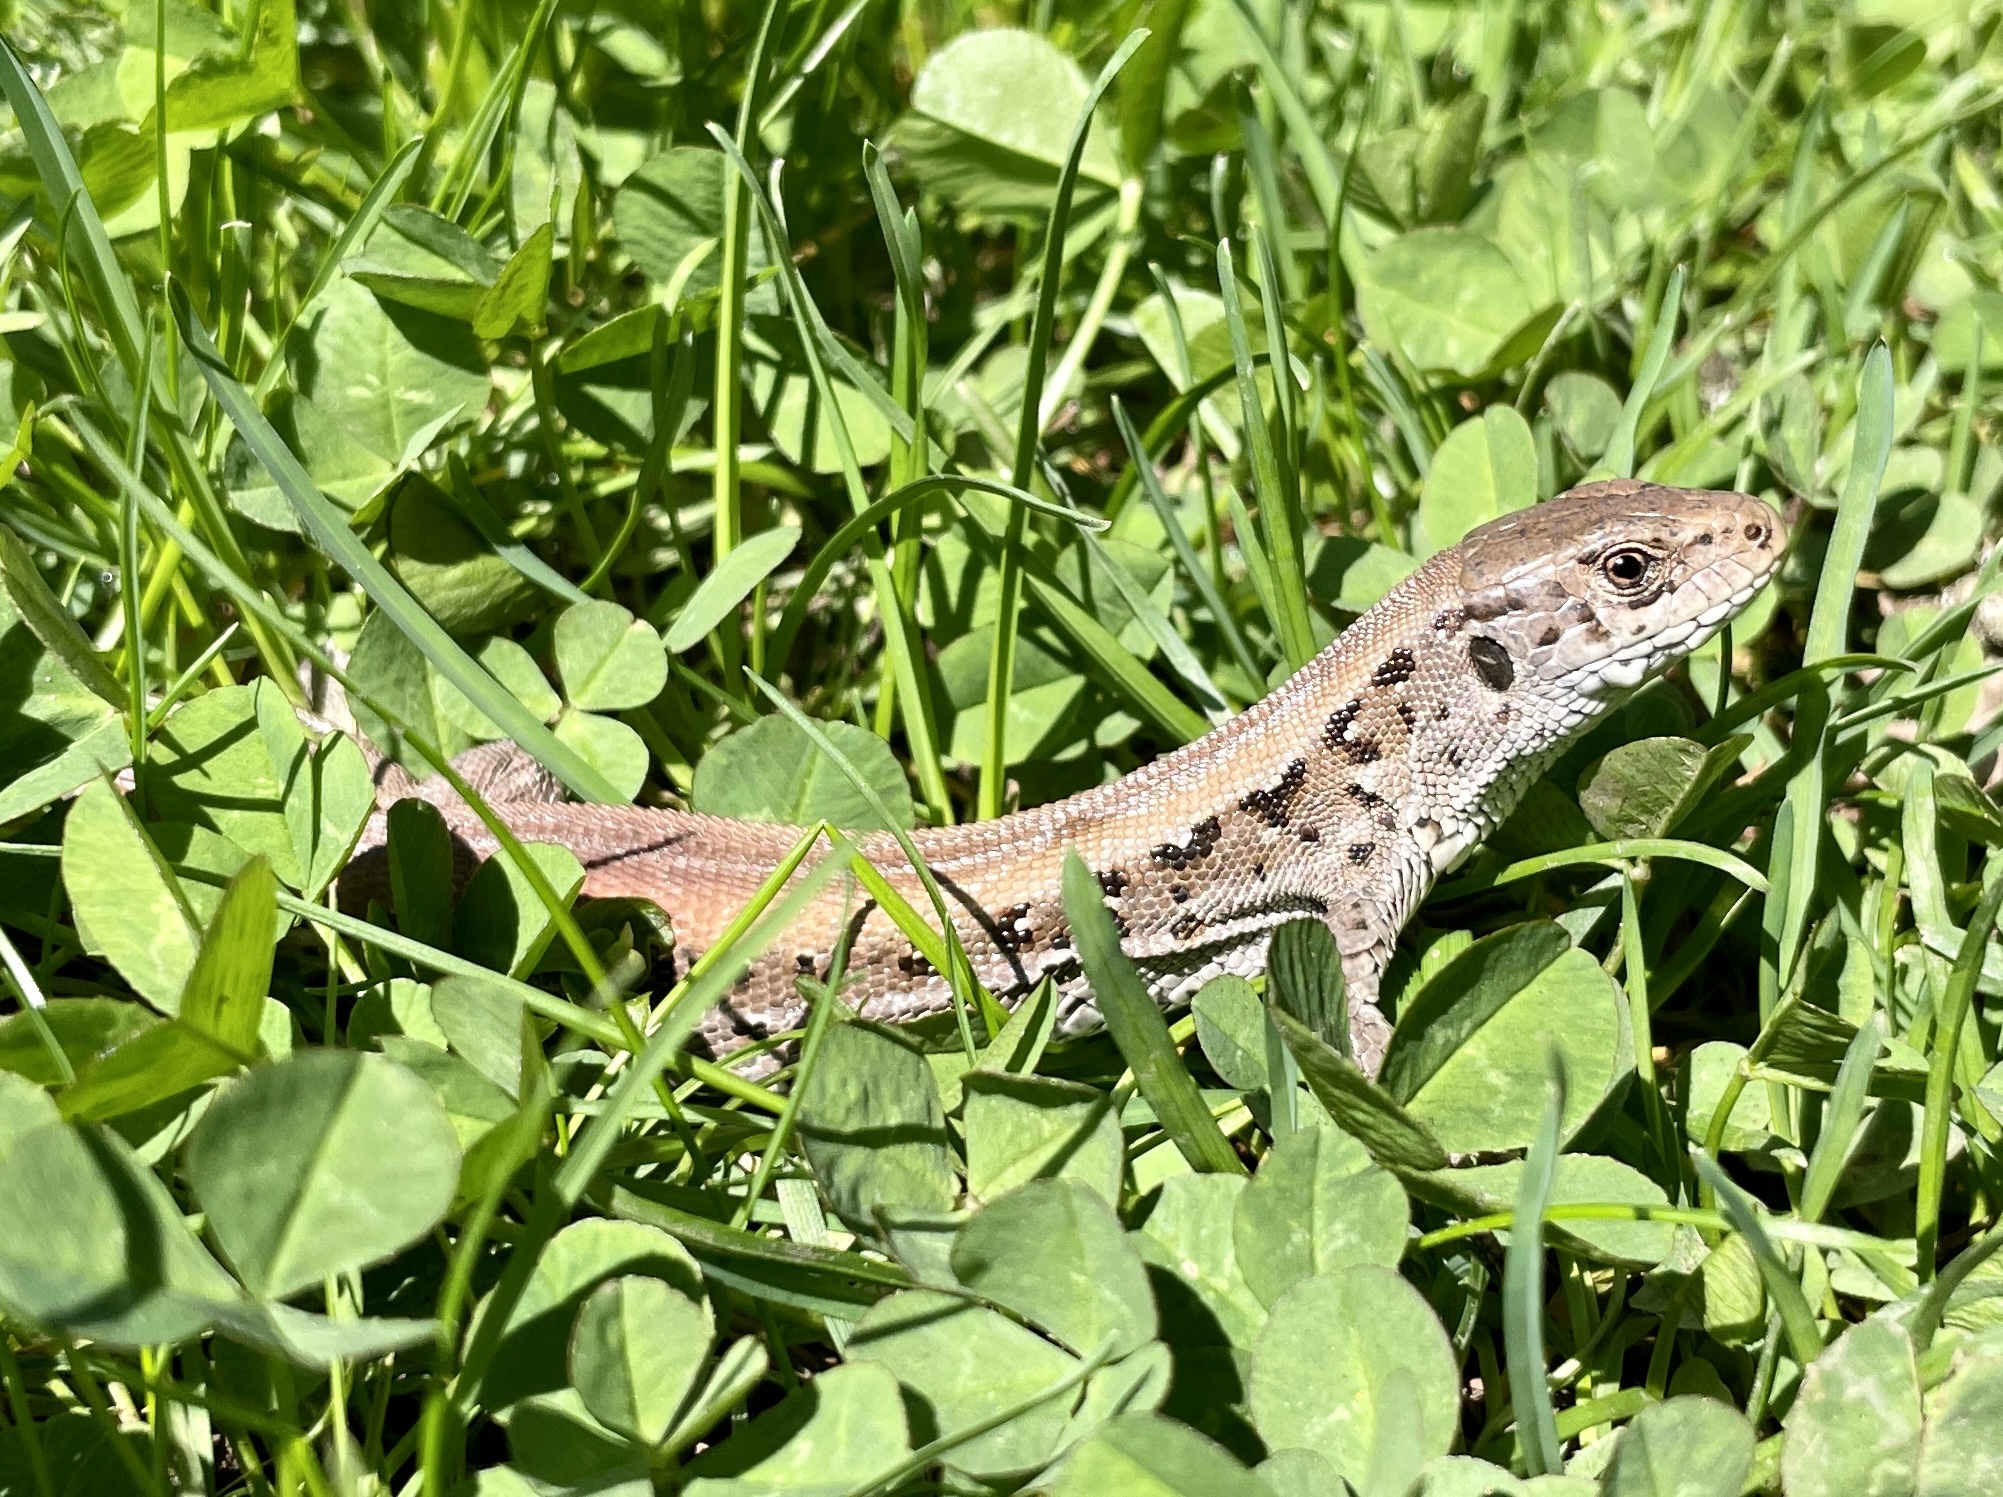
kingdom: Animalia
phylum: Chordata
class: Squamata
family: Lacertidae
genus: Lacerta
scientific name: Lacerta agilis
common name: Sand lizard
